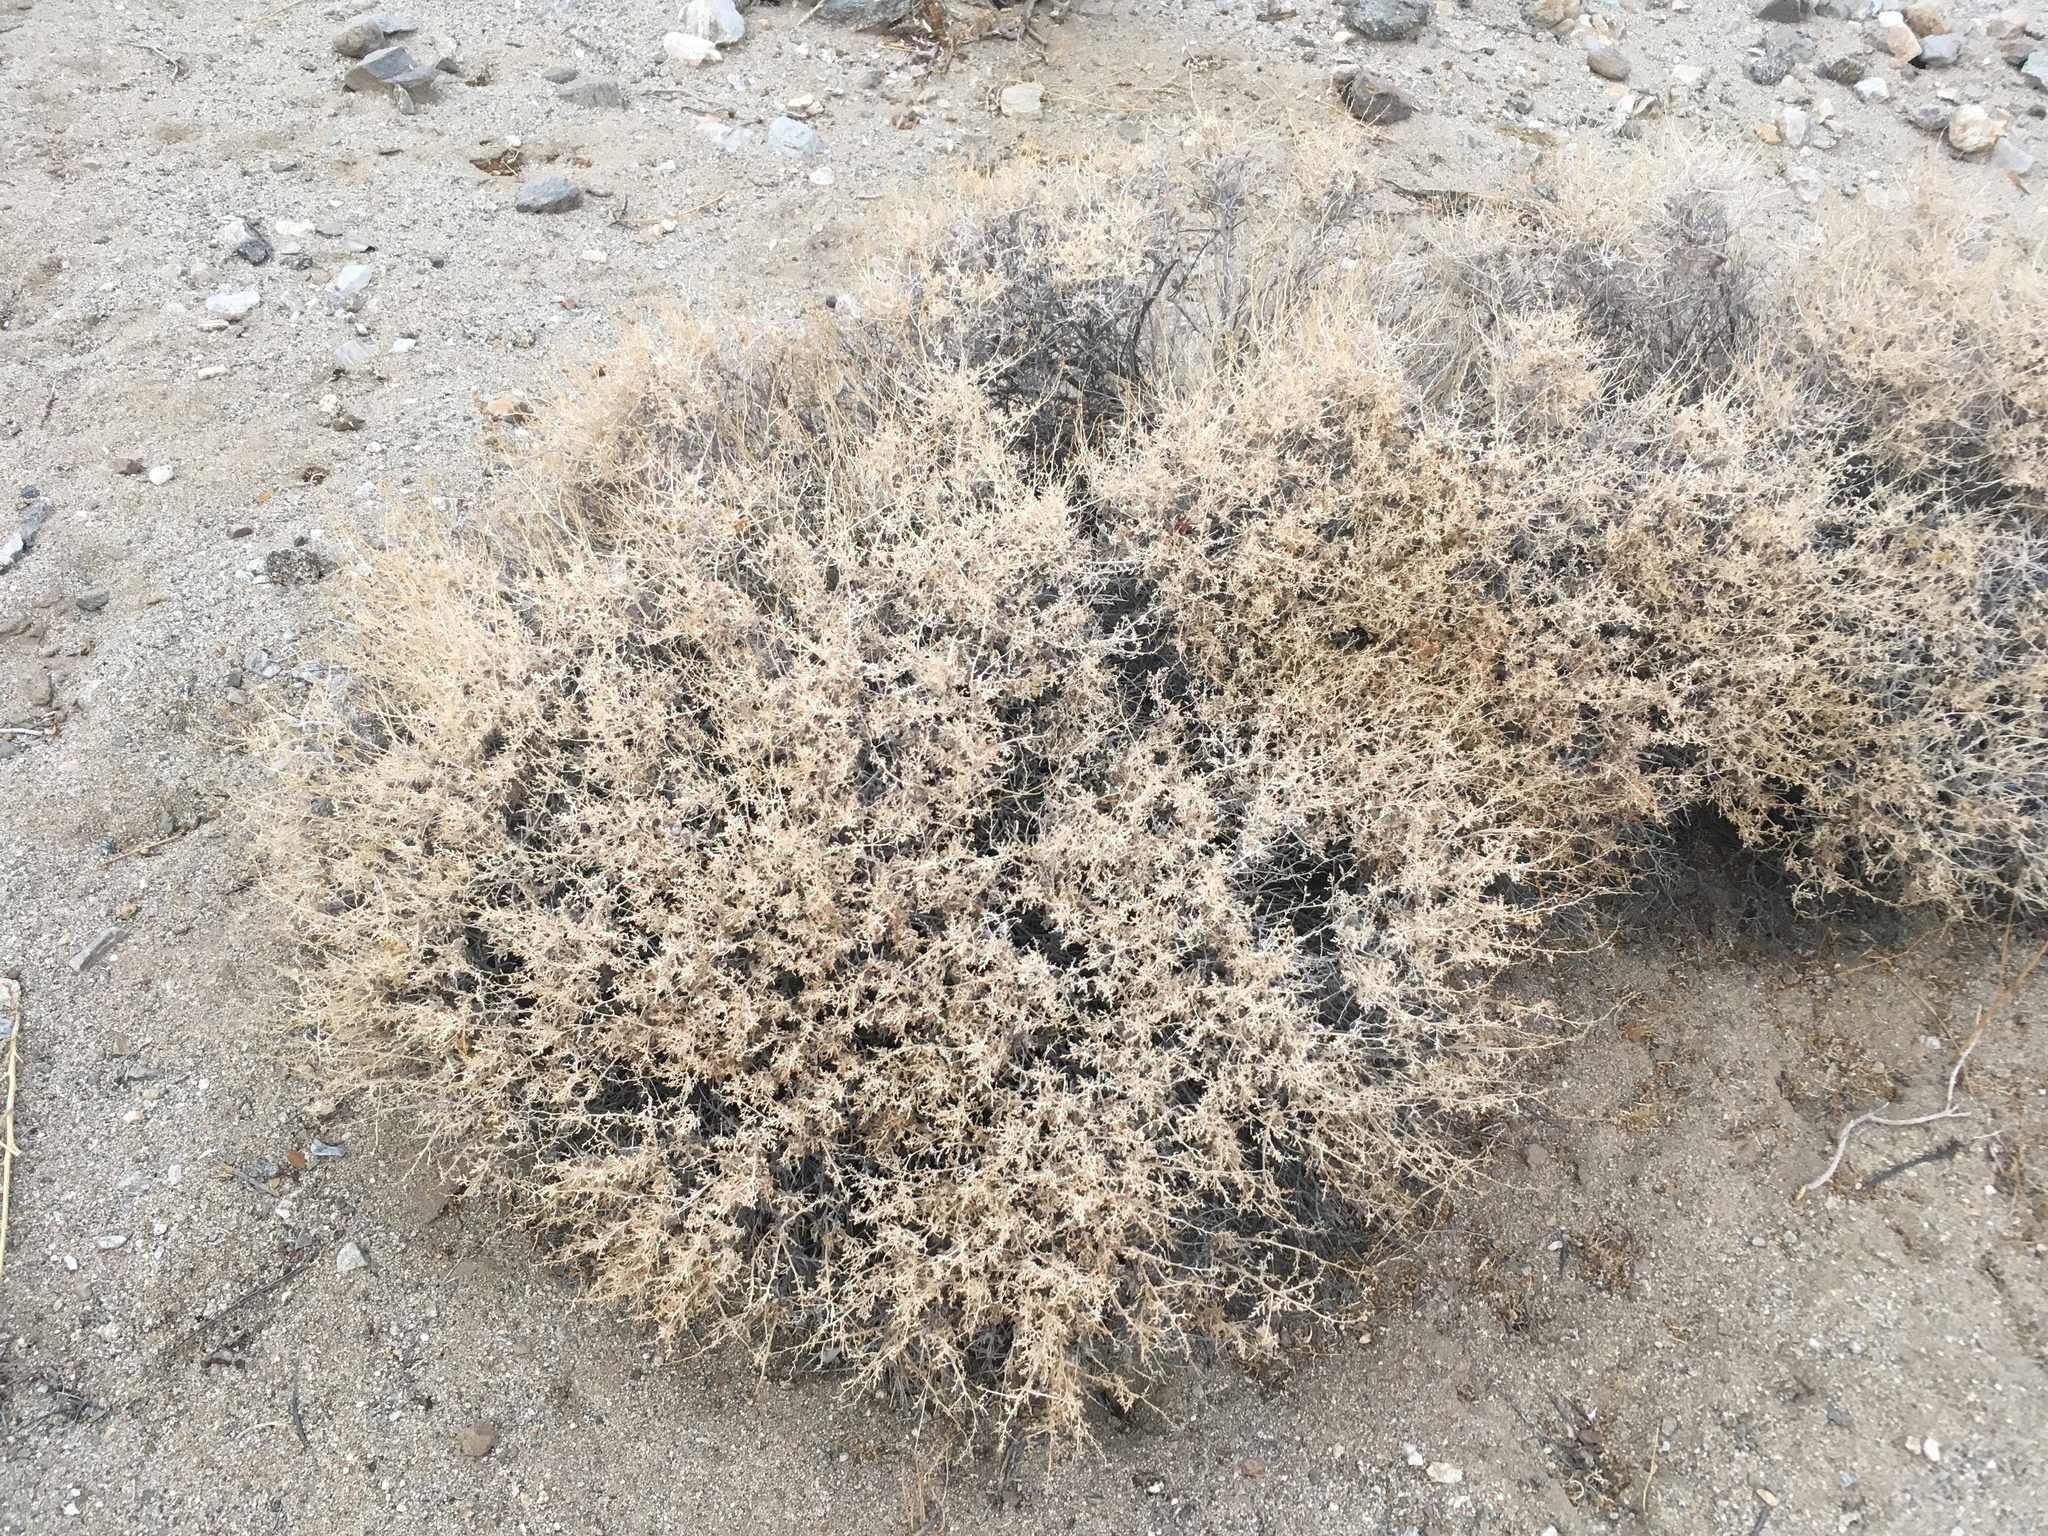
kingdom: Plantae
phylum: Tracheophyta
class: Magnoliopsida
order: Asterales
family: Asteraceae
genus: Ambrosia
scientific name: Ambrosia dumosa
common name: Bur-sage
